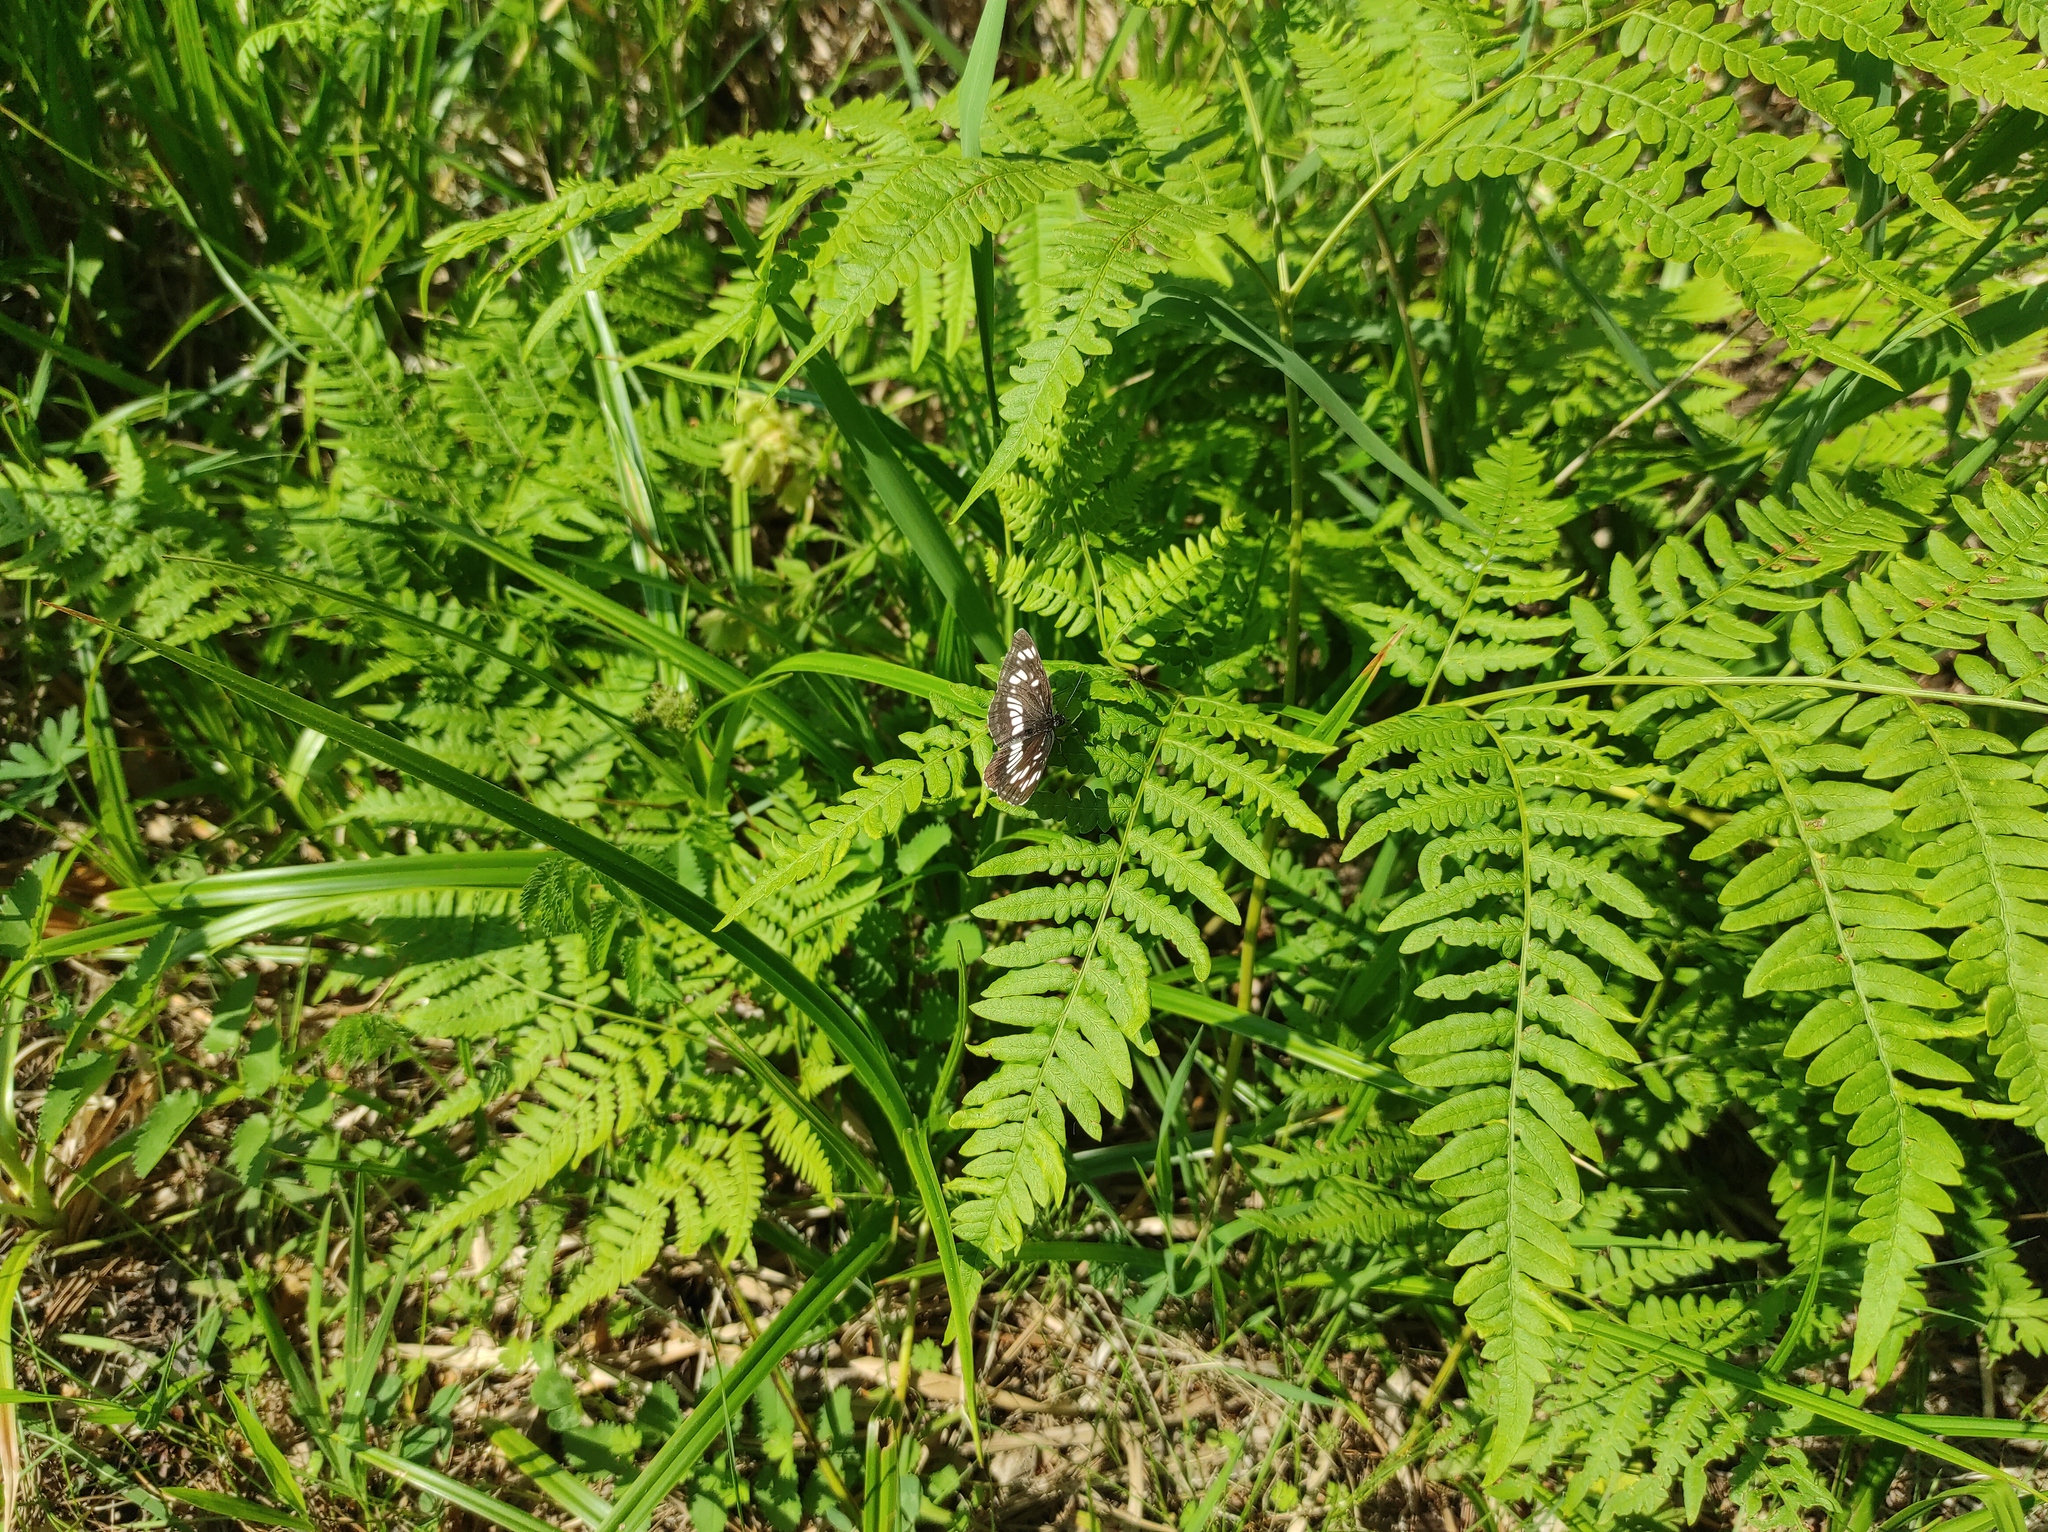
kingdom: Animalia
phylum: Arthropoda
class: Insecta
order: Lepidoptera
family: Nymphalidae
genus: Neptis
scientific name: Neptis rivularis
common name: Hungarian glider
